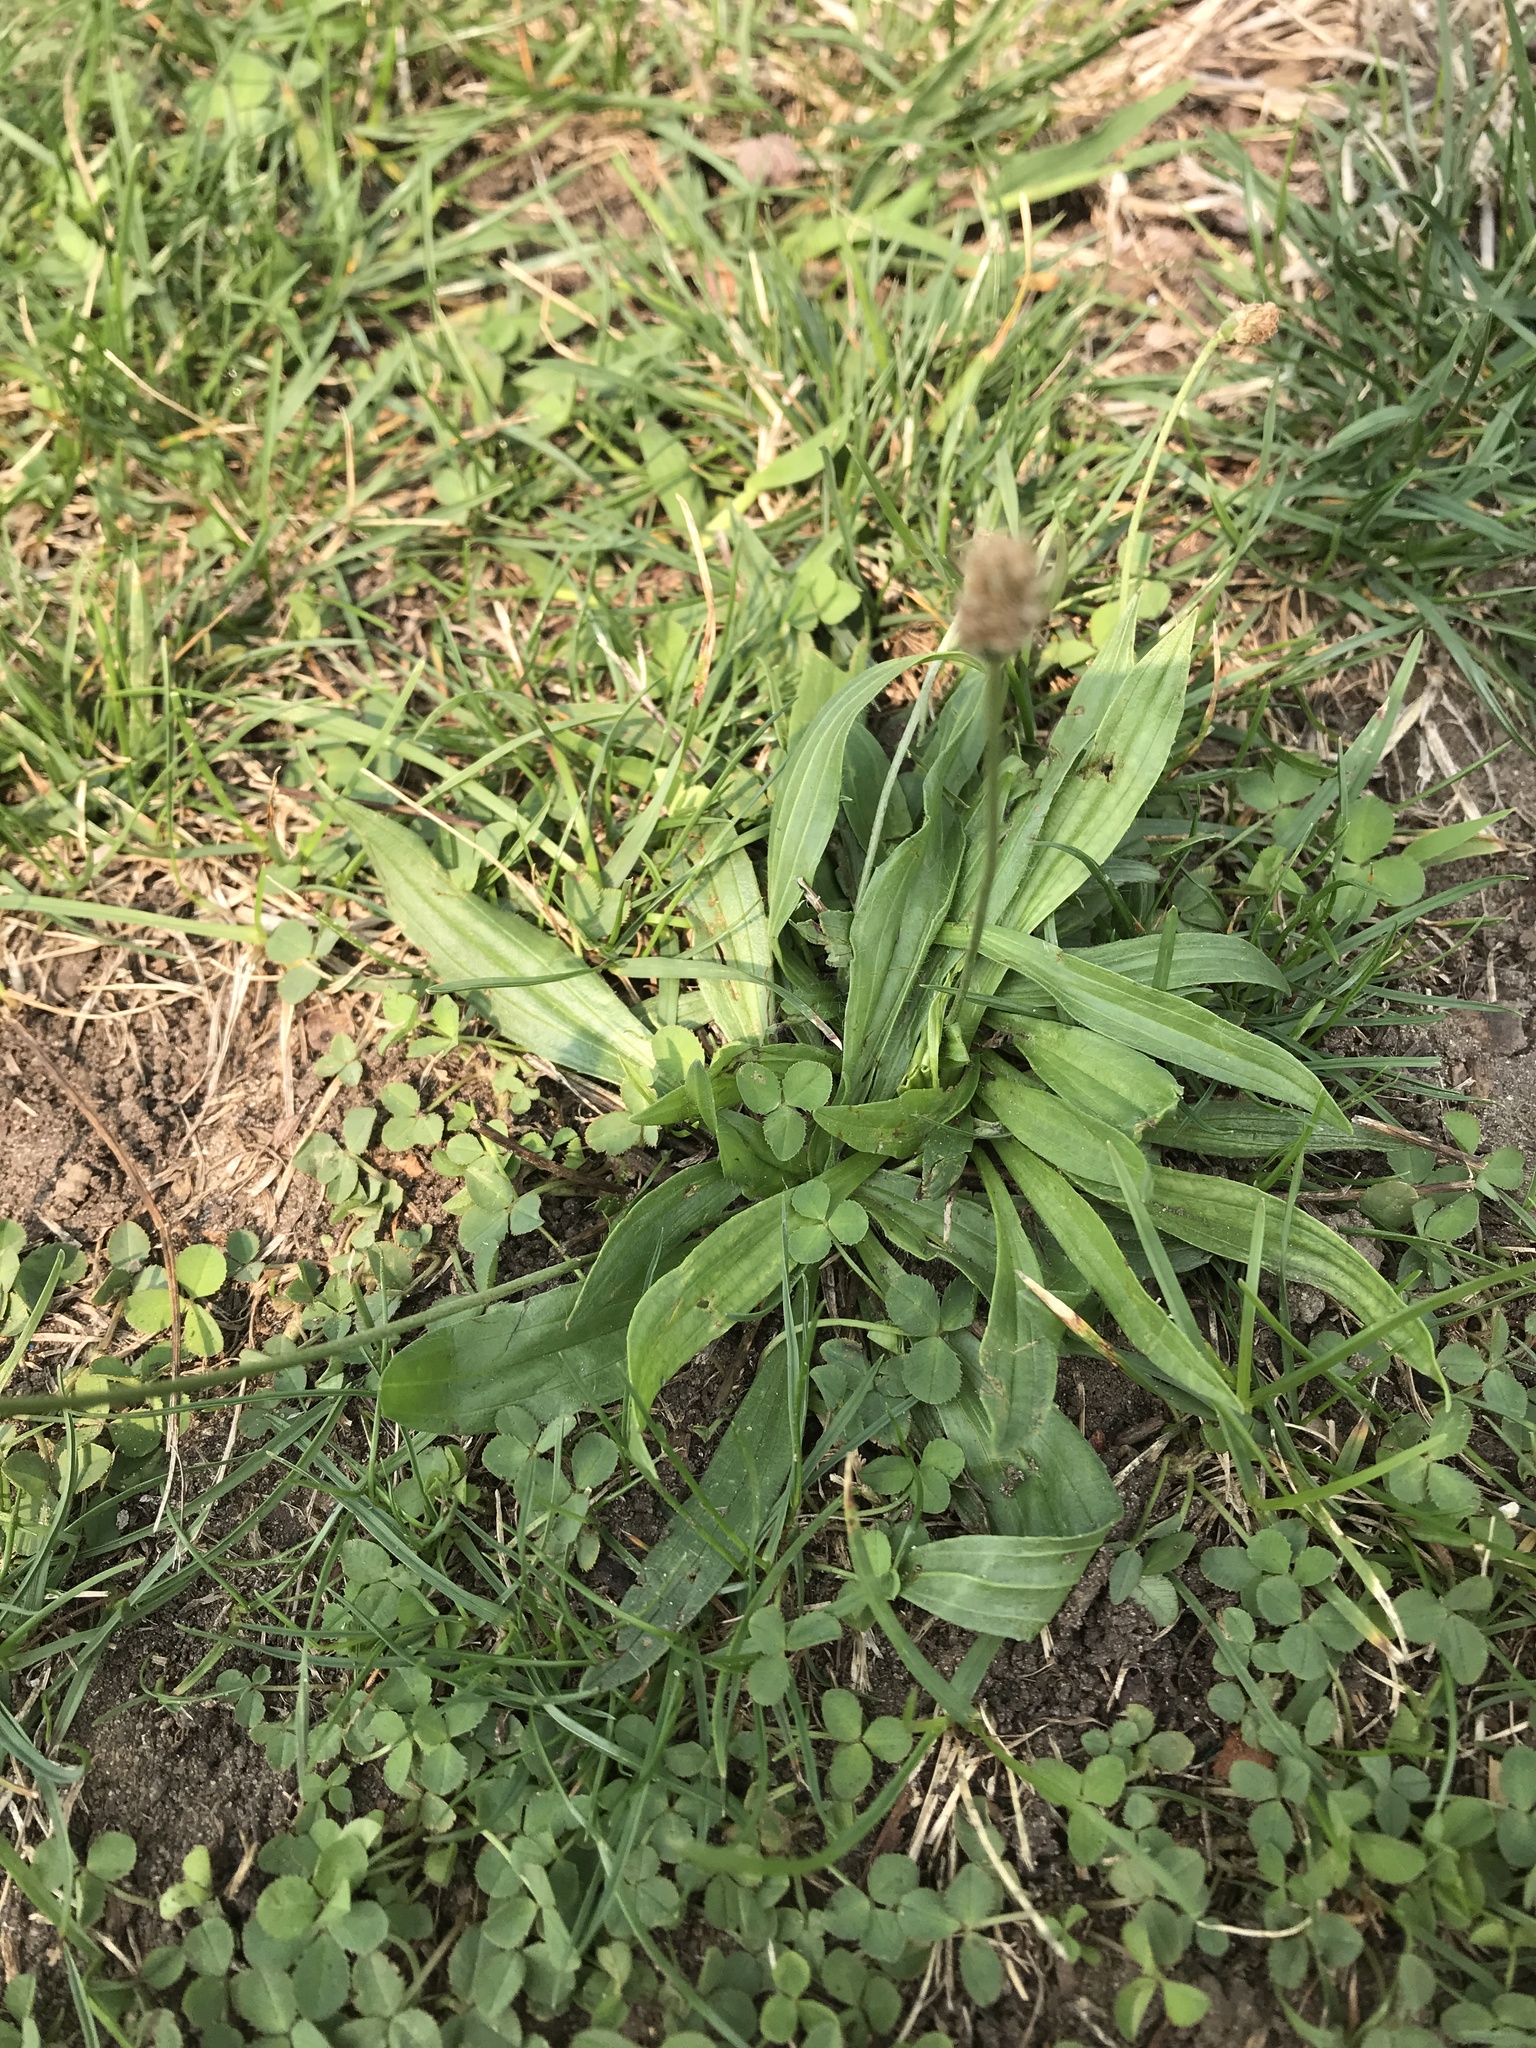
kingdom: Plantae
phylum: Tracheophyta
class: Magnoliopsida
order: Lamiales
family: Plantaginaceae
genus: Plantago
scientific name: Plantago lanceolata
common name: Ribwort plantain
